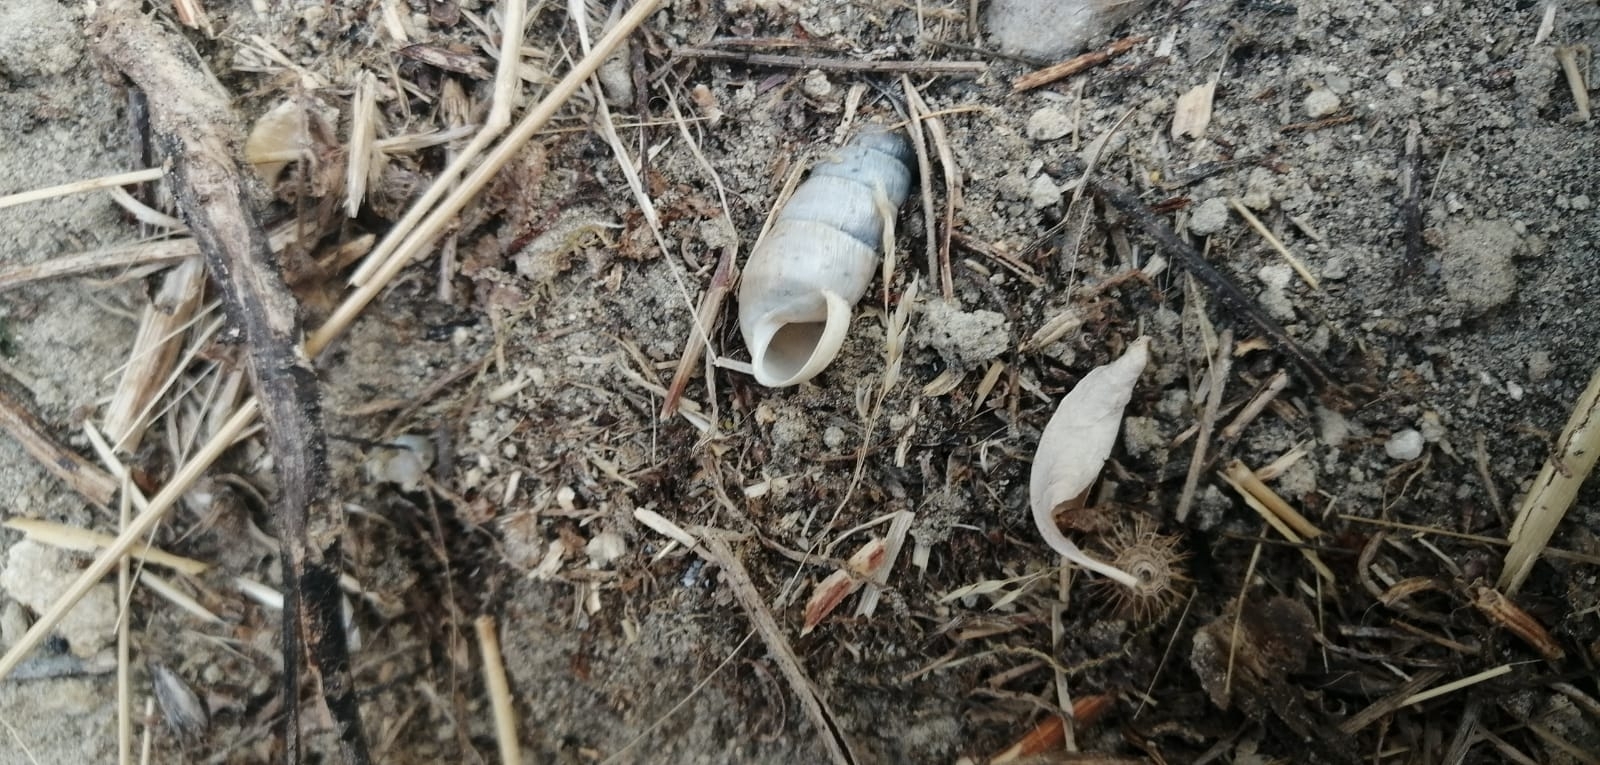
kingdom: Animalia
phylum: Mollusca
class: Gastropoda
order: Stylommatophora
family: Achatinidae
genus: Rumina
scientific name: Rumina decollata
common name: Decollate snail
